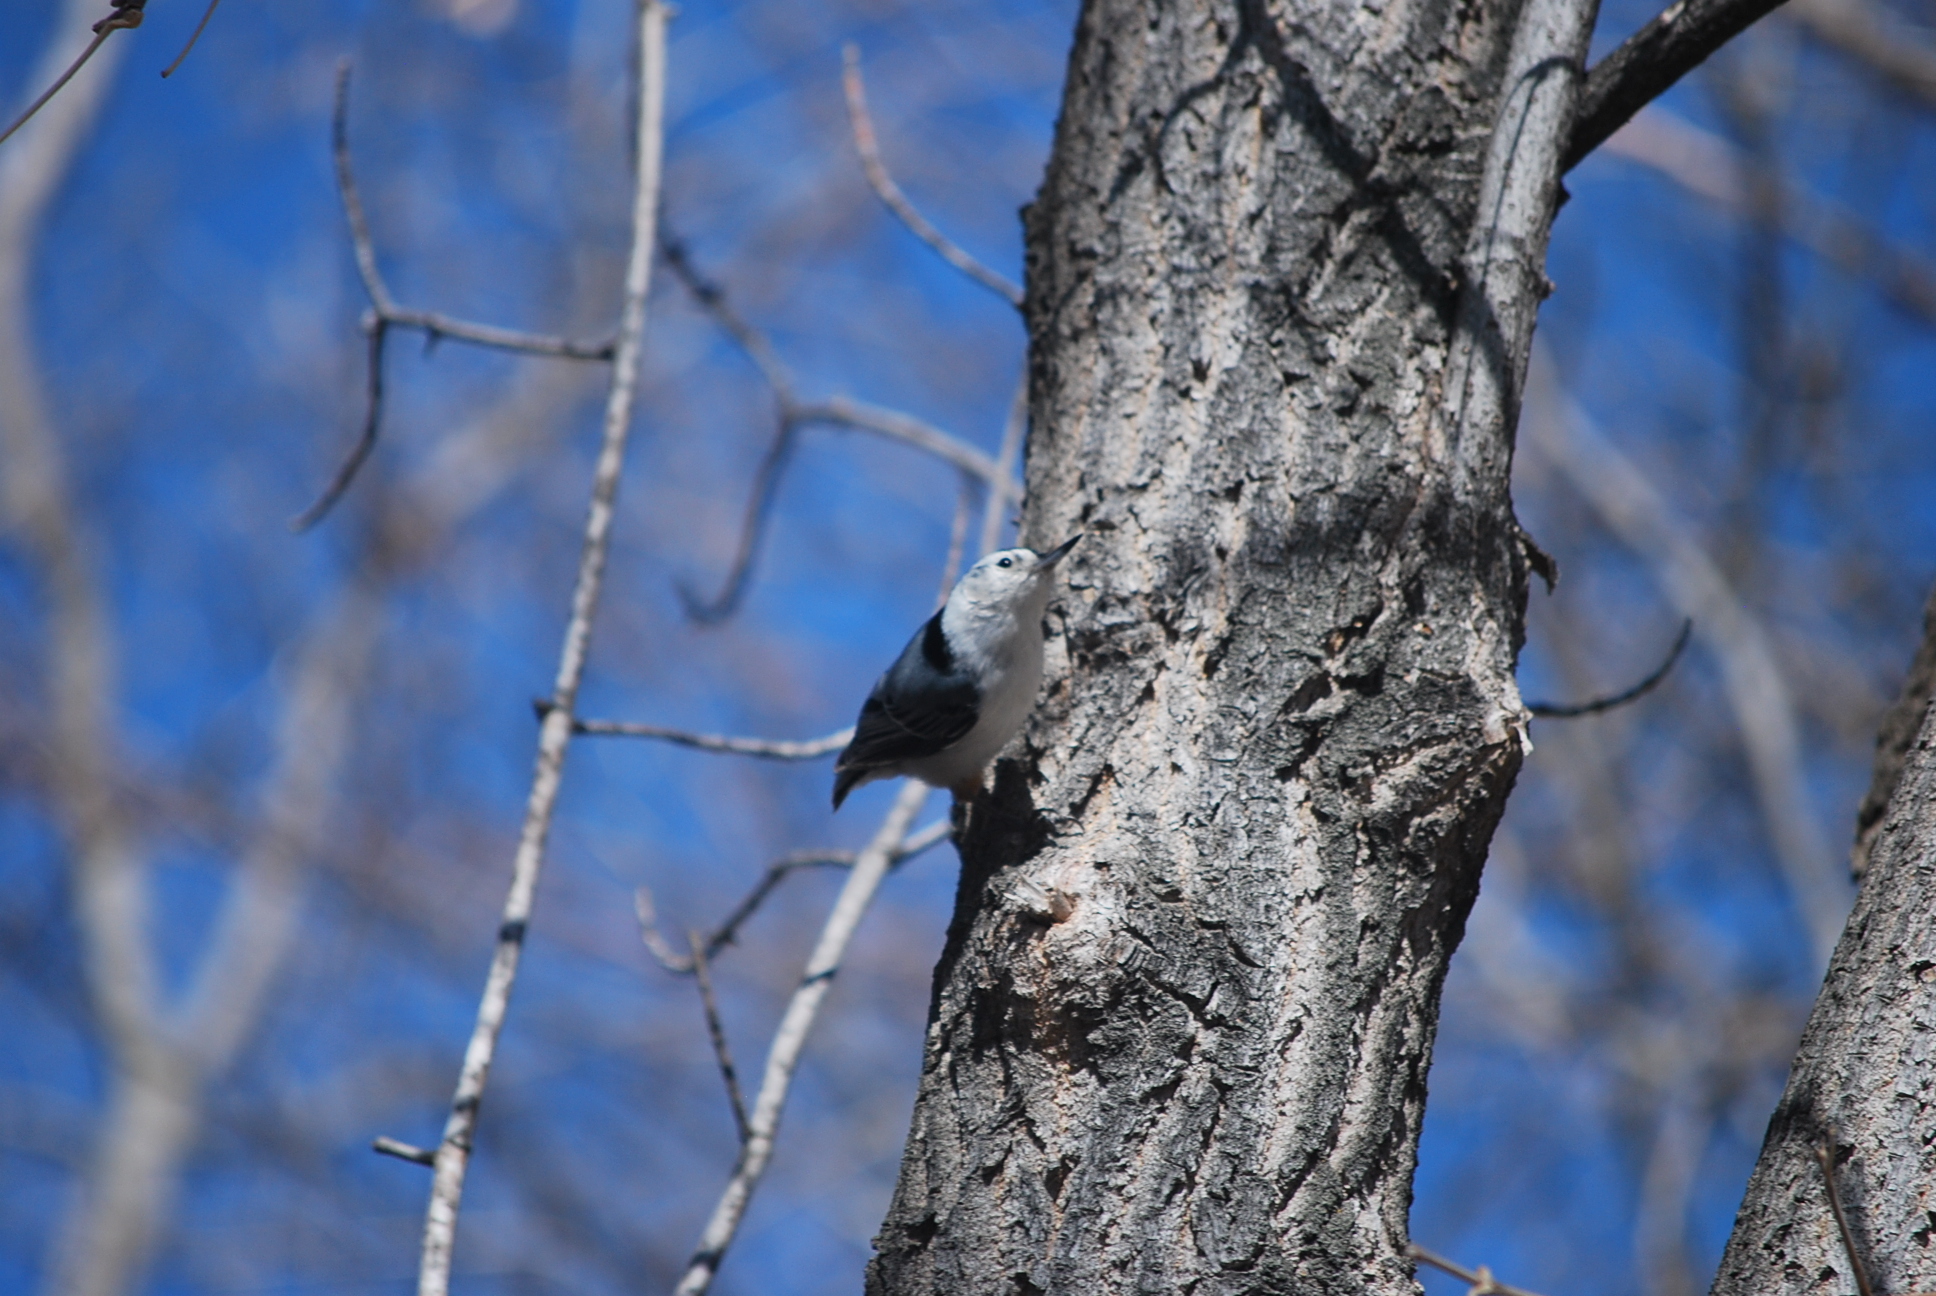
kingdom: Animalia
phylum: Chordata
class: Aves
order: Passeriformes
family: Sittidae
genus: Sitta
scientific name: Sitta carolinensis
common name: White-breasted nuthatch
